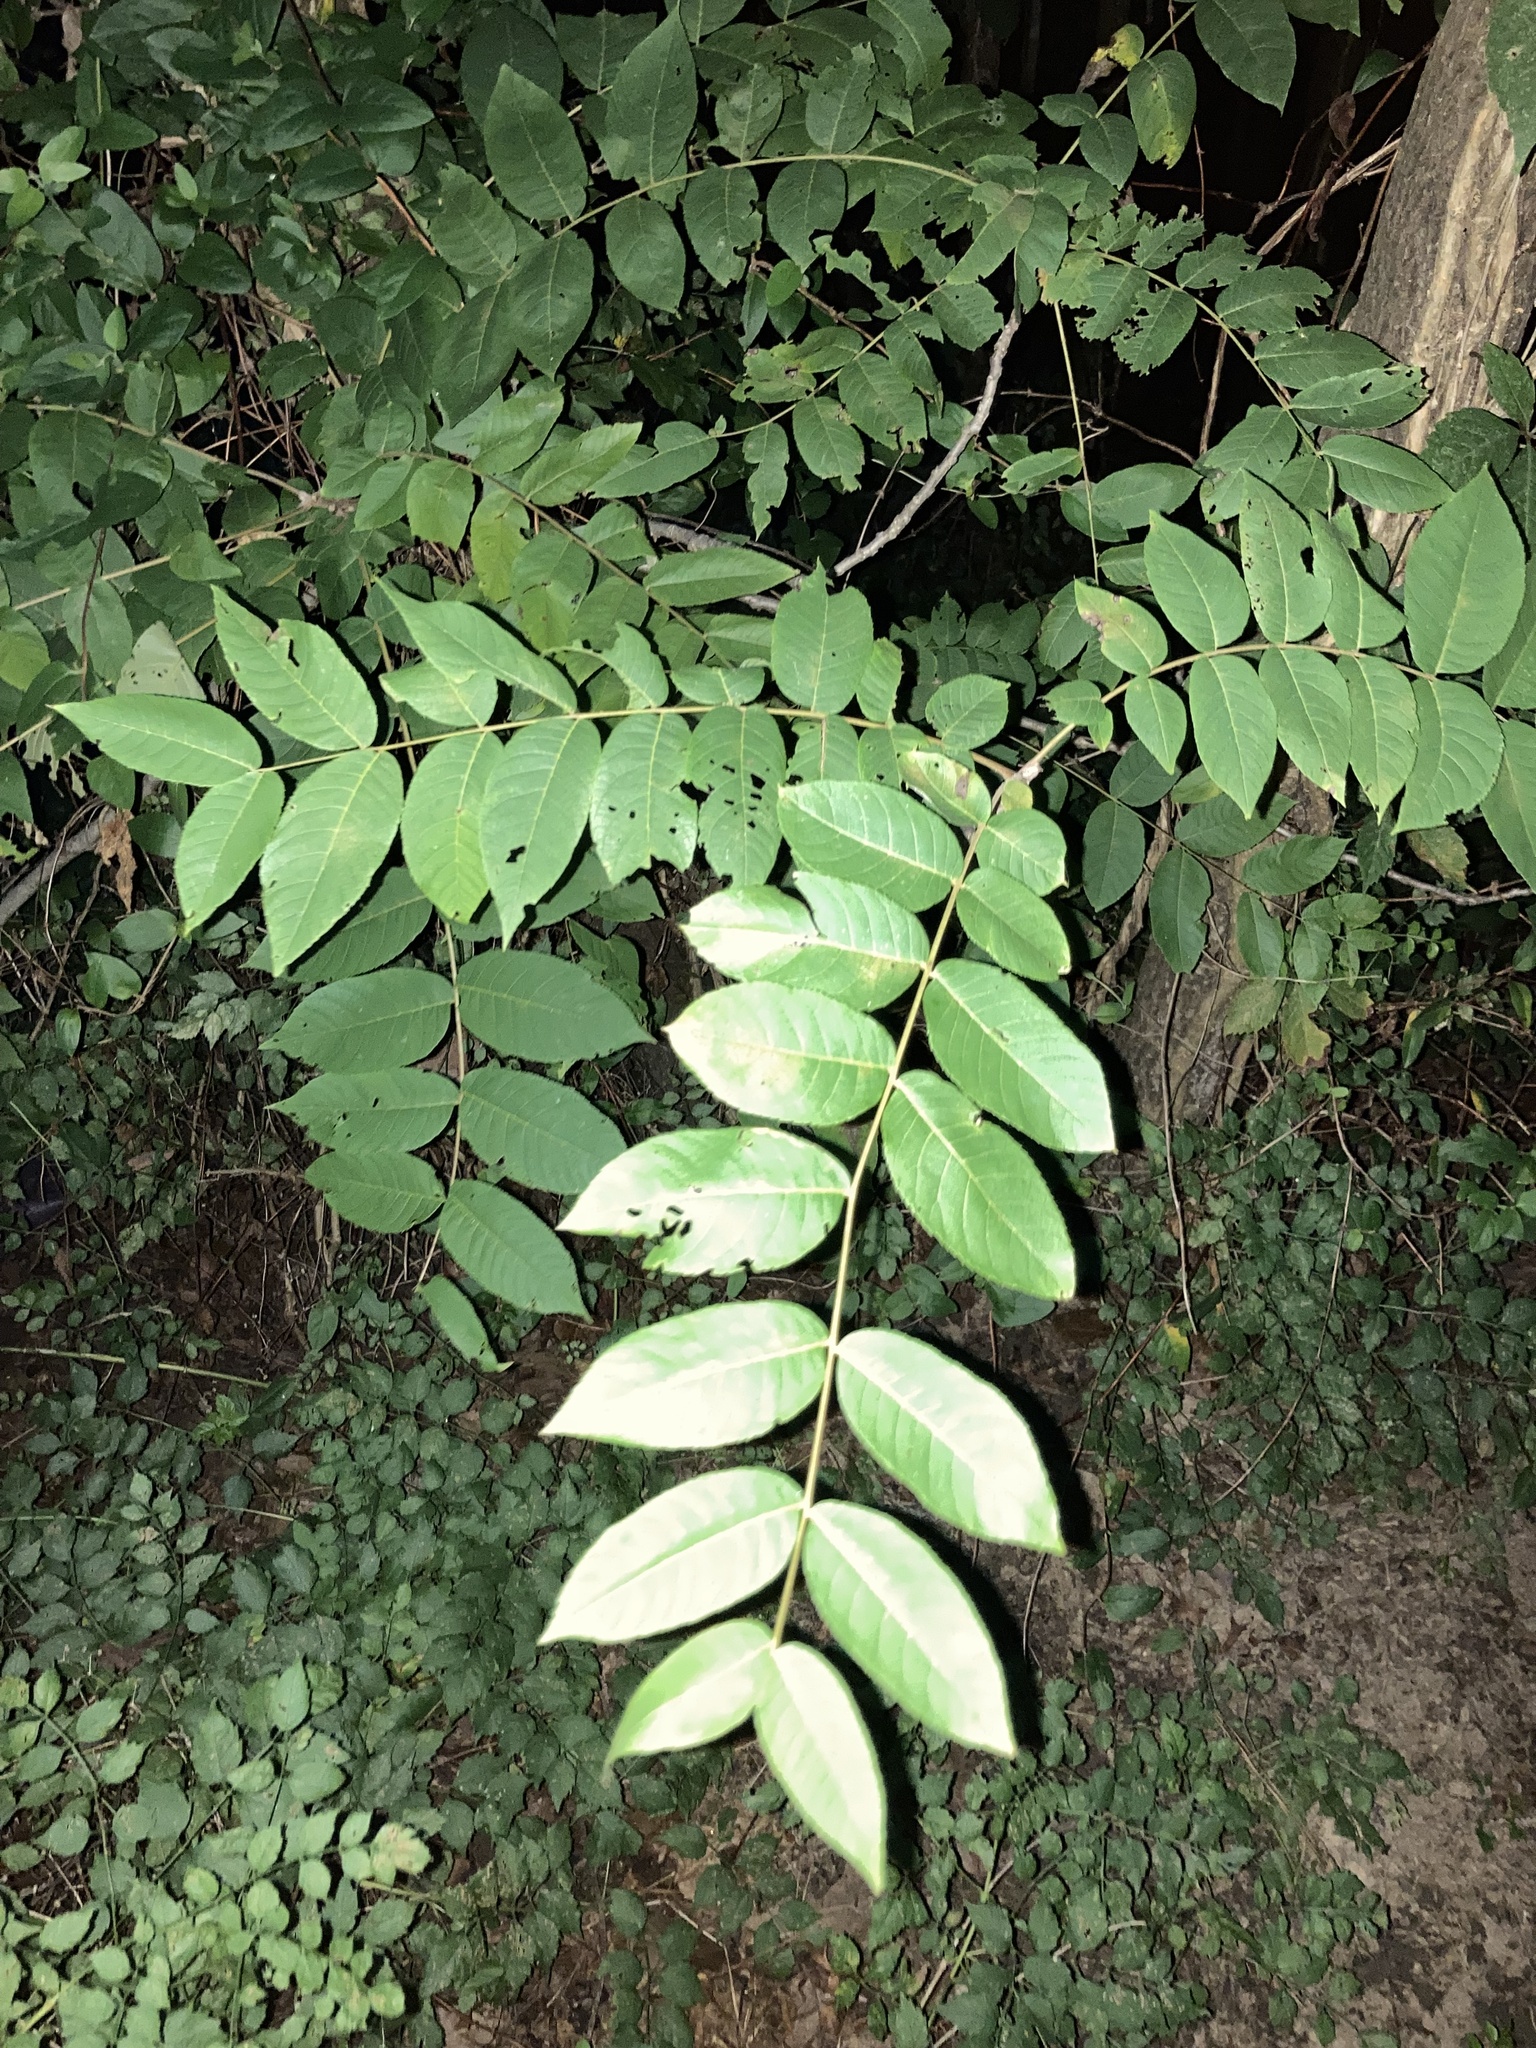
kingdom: Plantae
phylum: Tracheophyta
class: Magnoliopsida
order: Fagales
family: Juglandaceae
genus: Juglans
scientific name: Juglans nigra
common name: Black walnut
